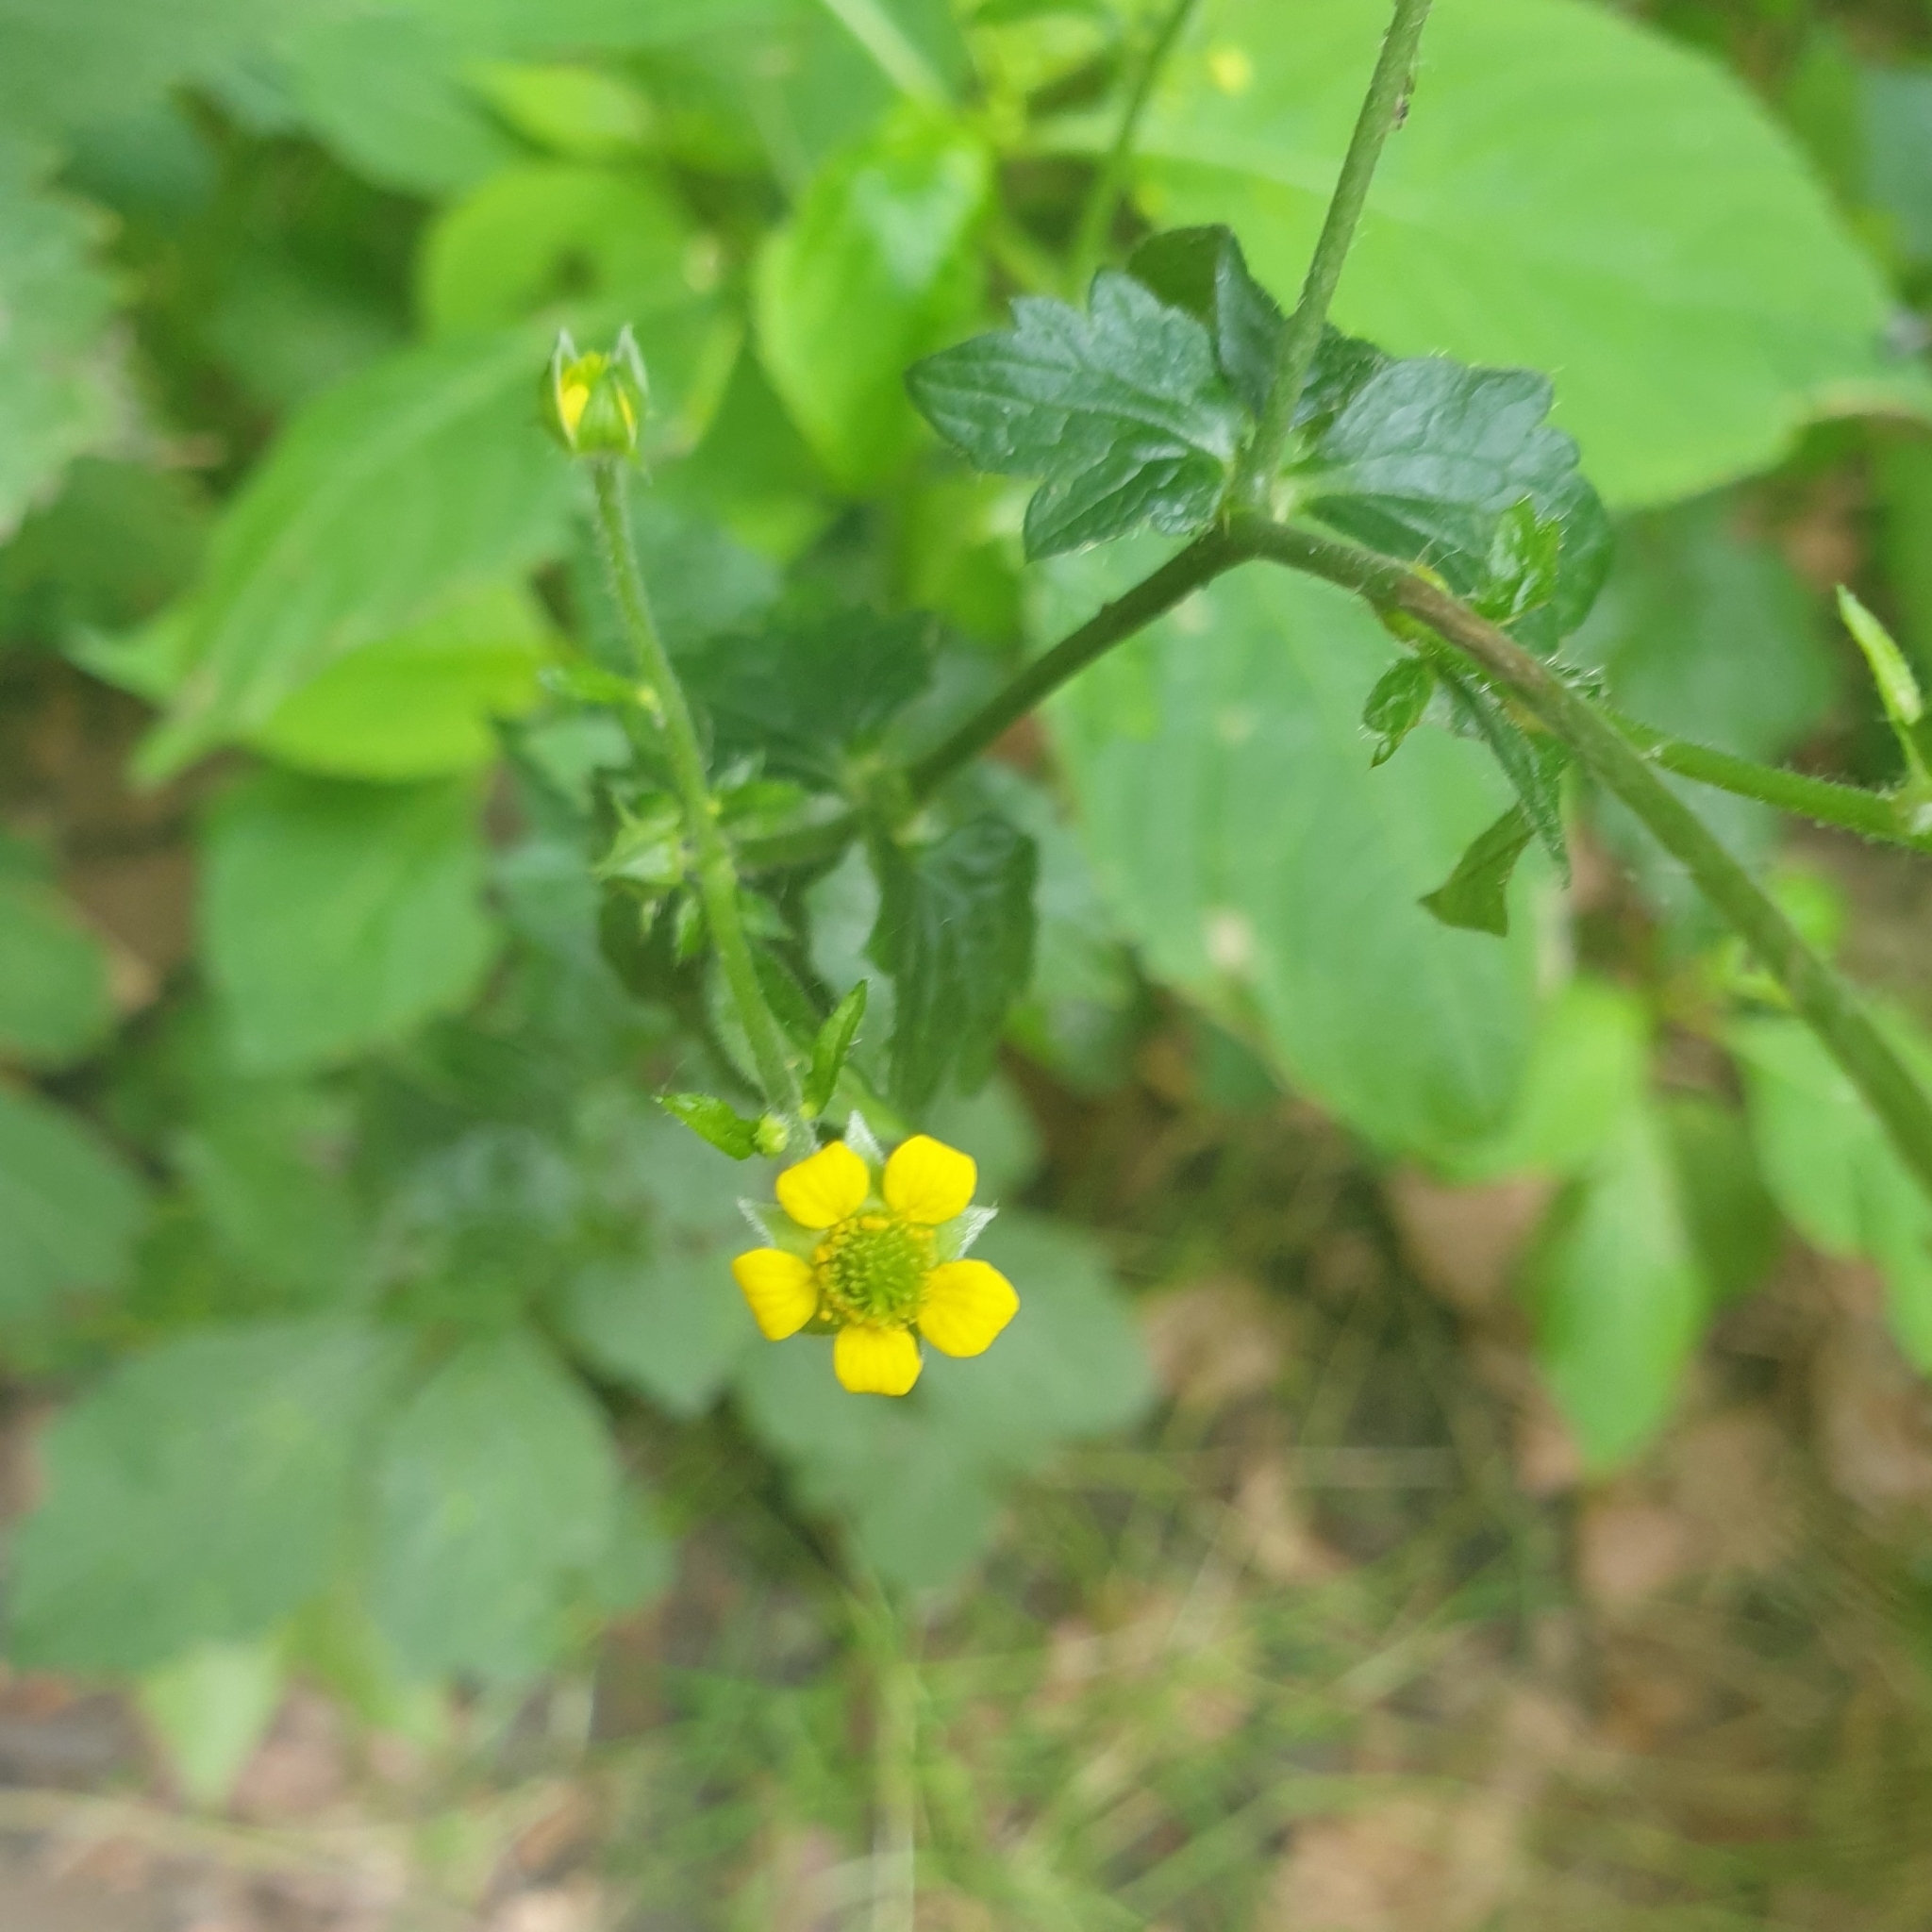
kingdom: Plantae
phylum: Tracheophyta
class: Magnoliopsida
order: Rosales
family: Rosaceae
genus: Geum
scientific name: Geum urbanum
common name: Wood avens
